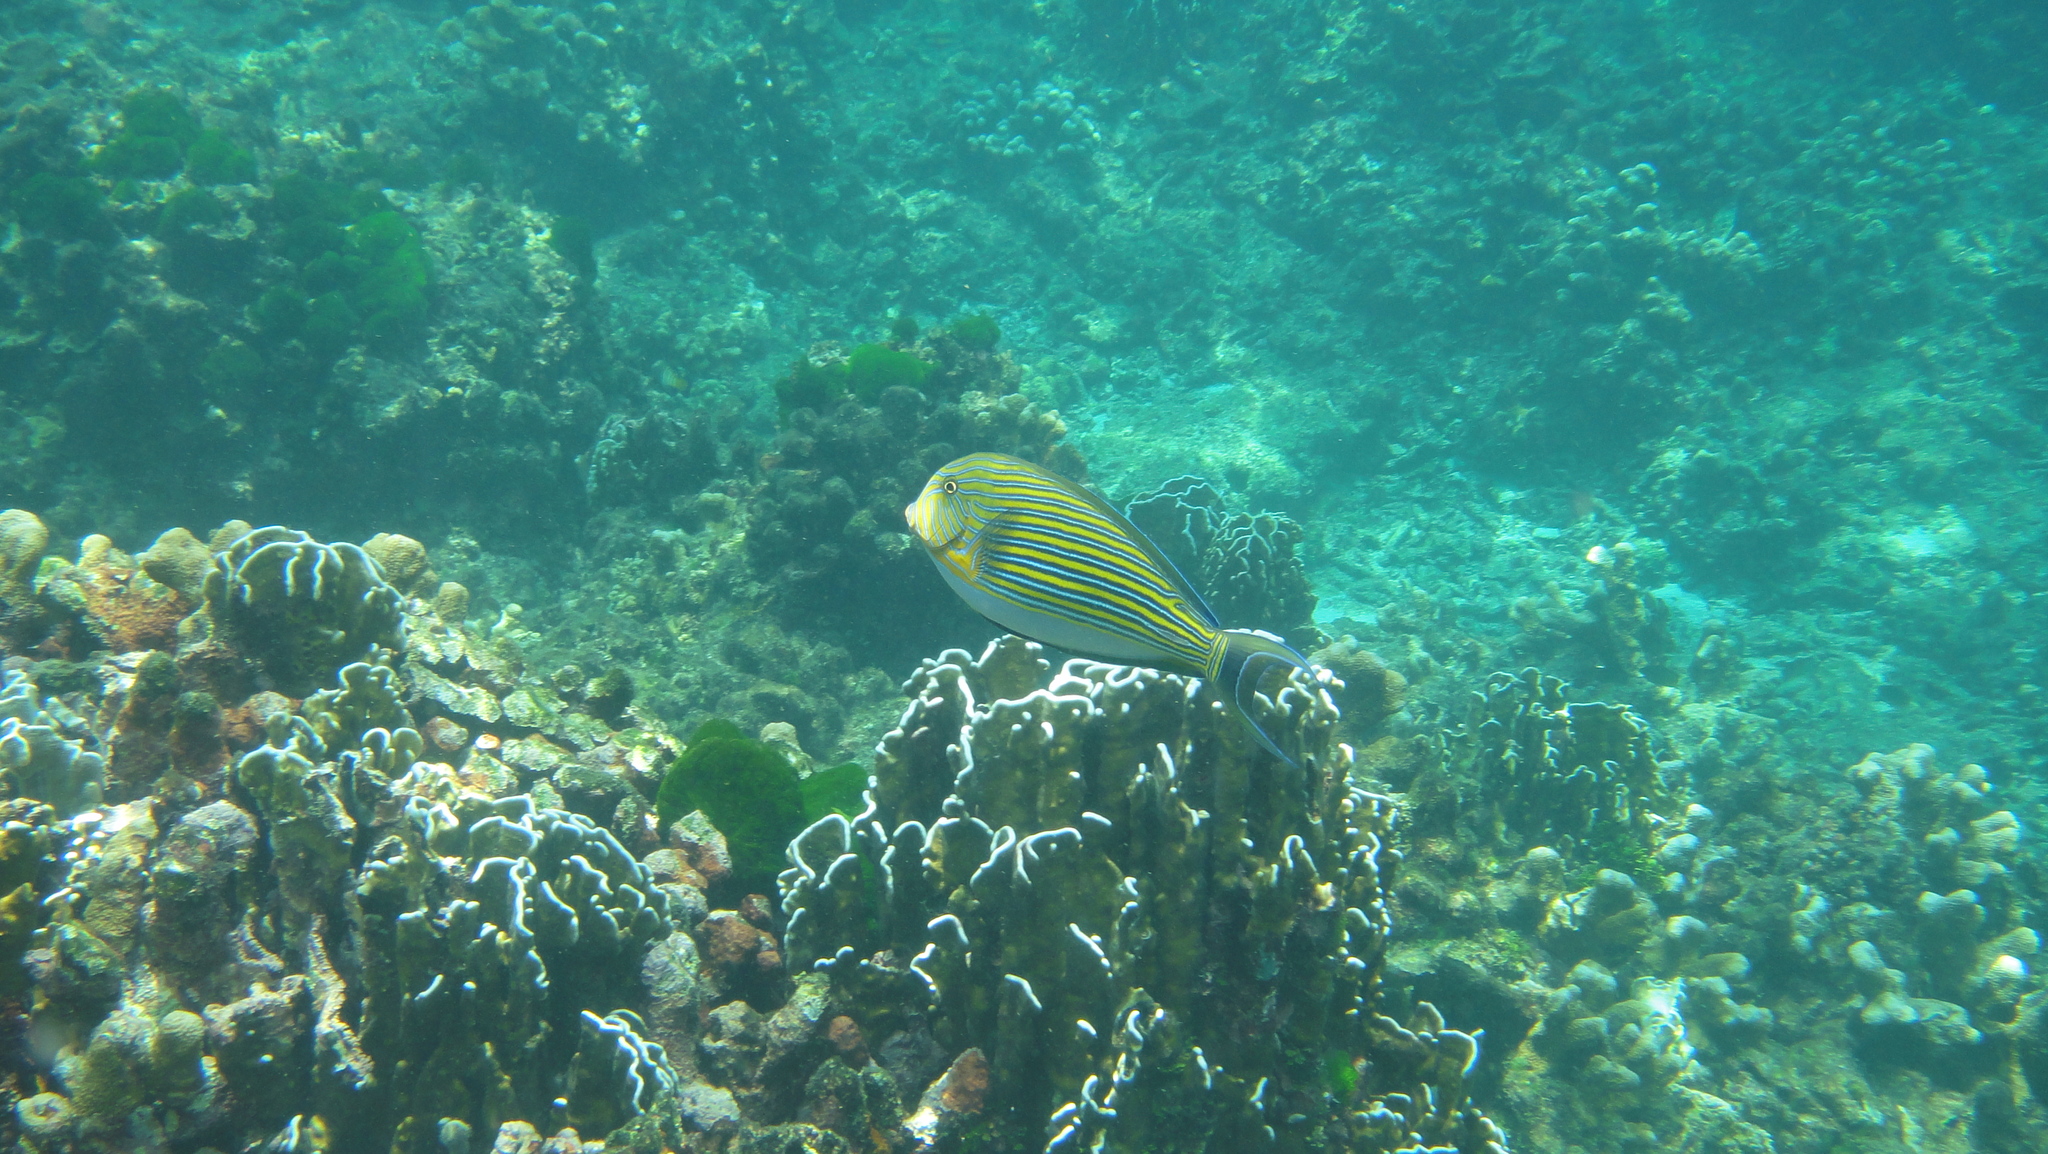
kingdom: Animalia
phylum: Chordata
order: Perciformes
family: Acanthuridae
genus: Acanthurus
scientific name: Acanthurus lineatus
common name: Striped surgeonfish
